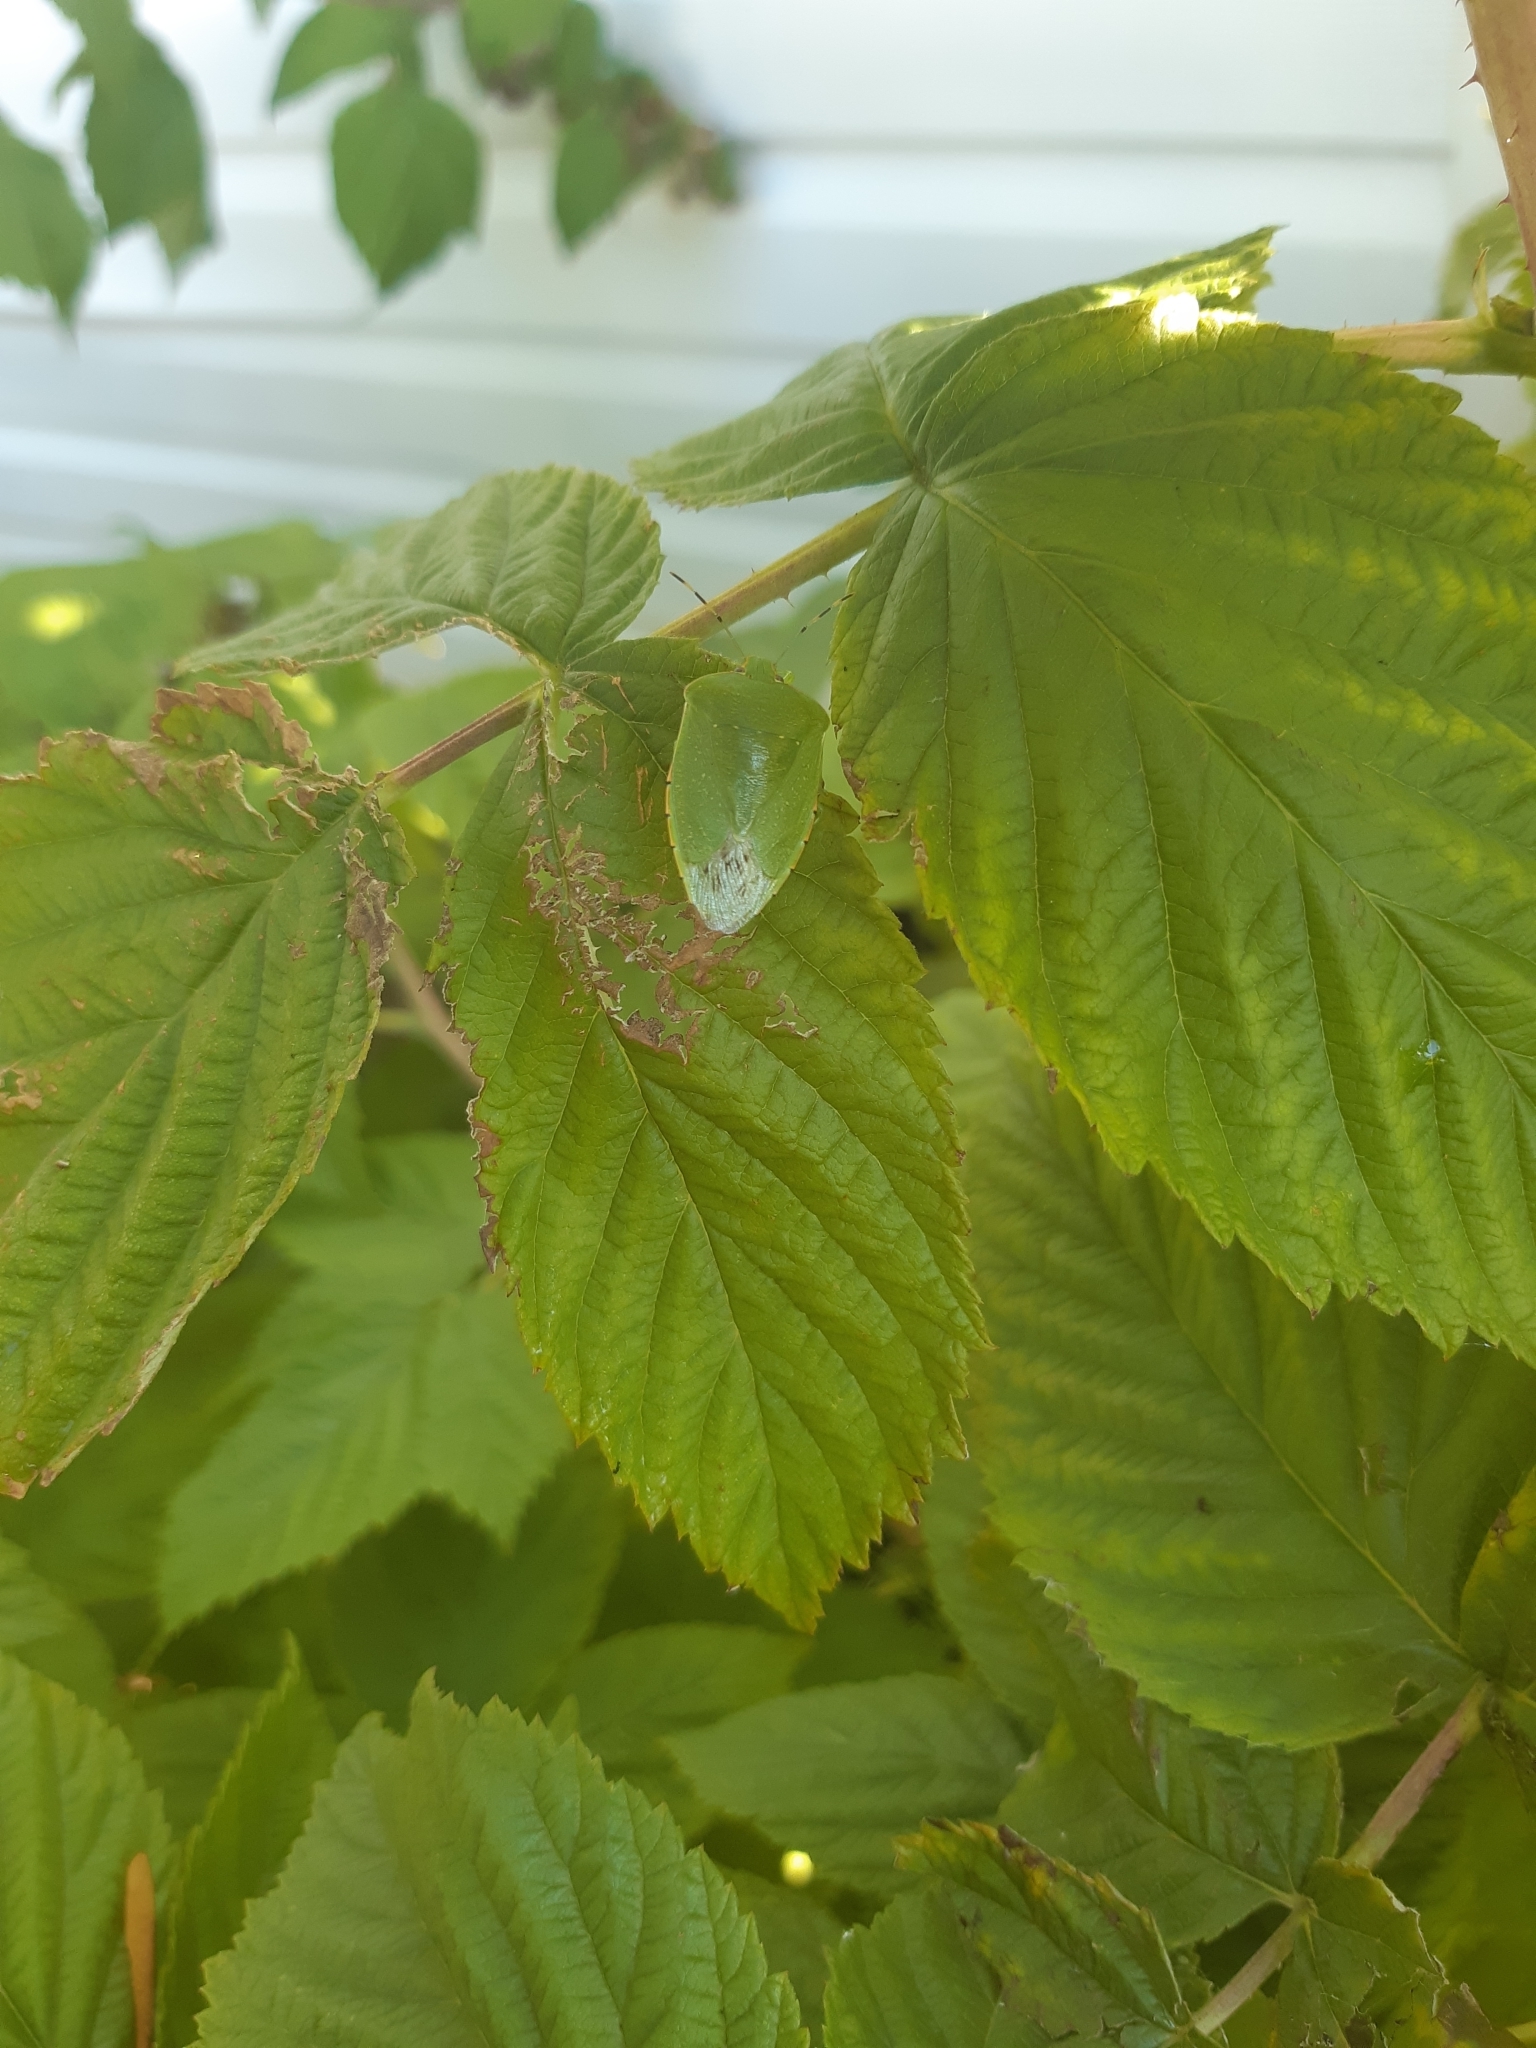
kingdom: Animalia
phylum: Arthropoda
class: Insecta
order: Hemiptera
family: Pentatomidae
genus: Chinavia
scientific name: Chinavia hilaris
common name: Green stink bug
